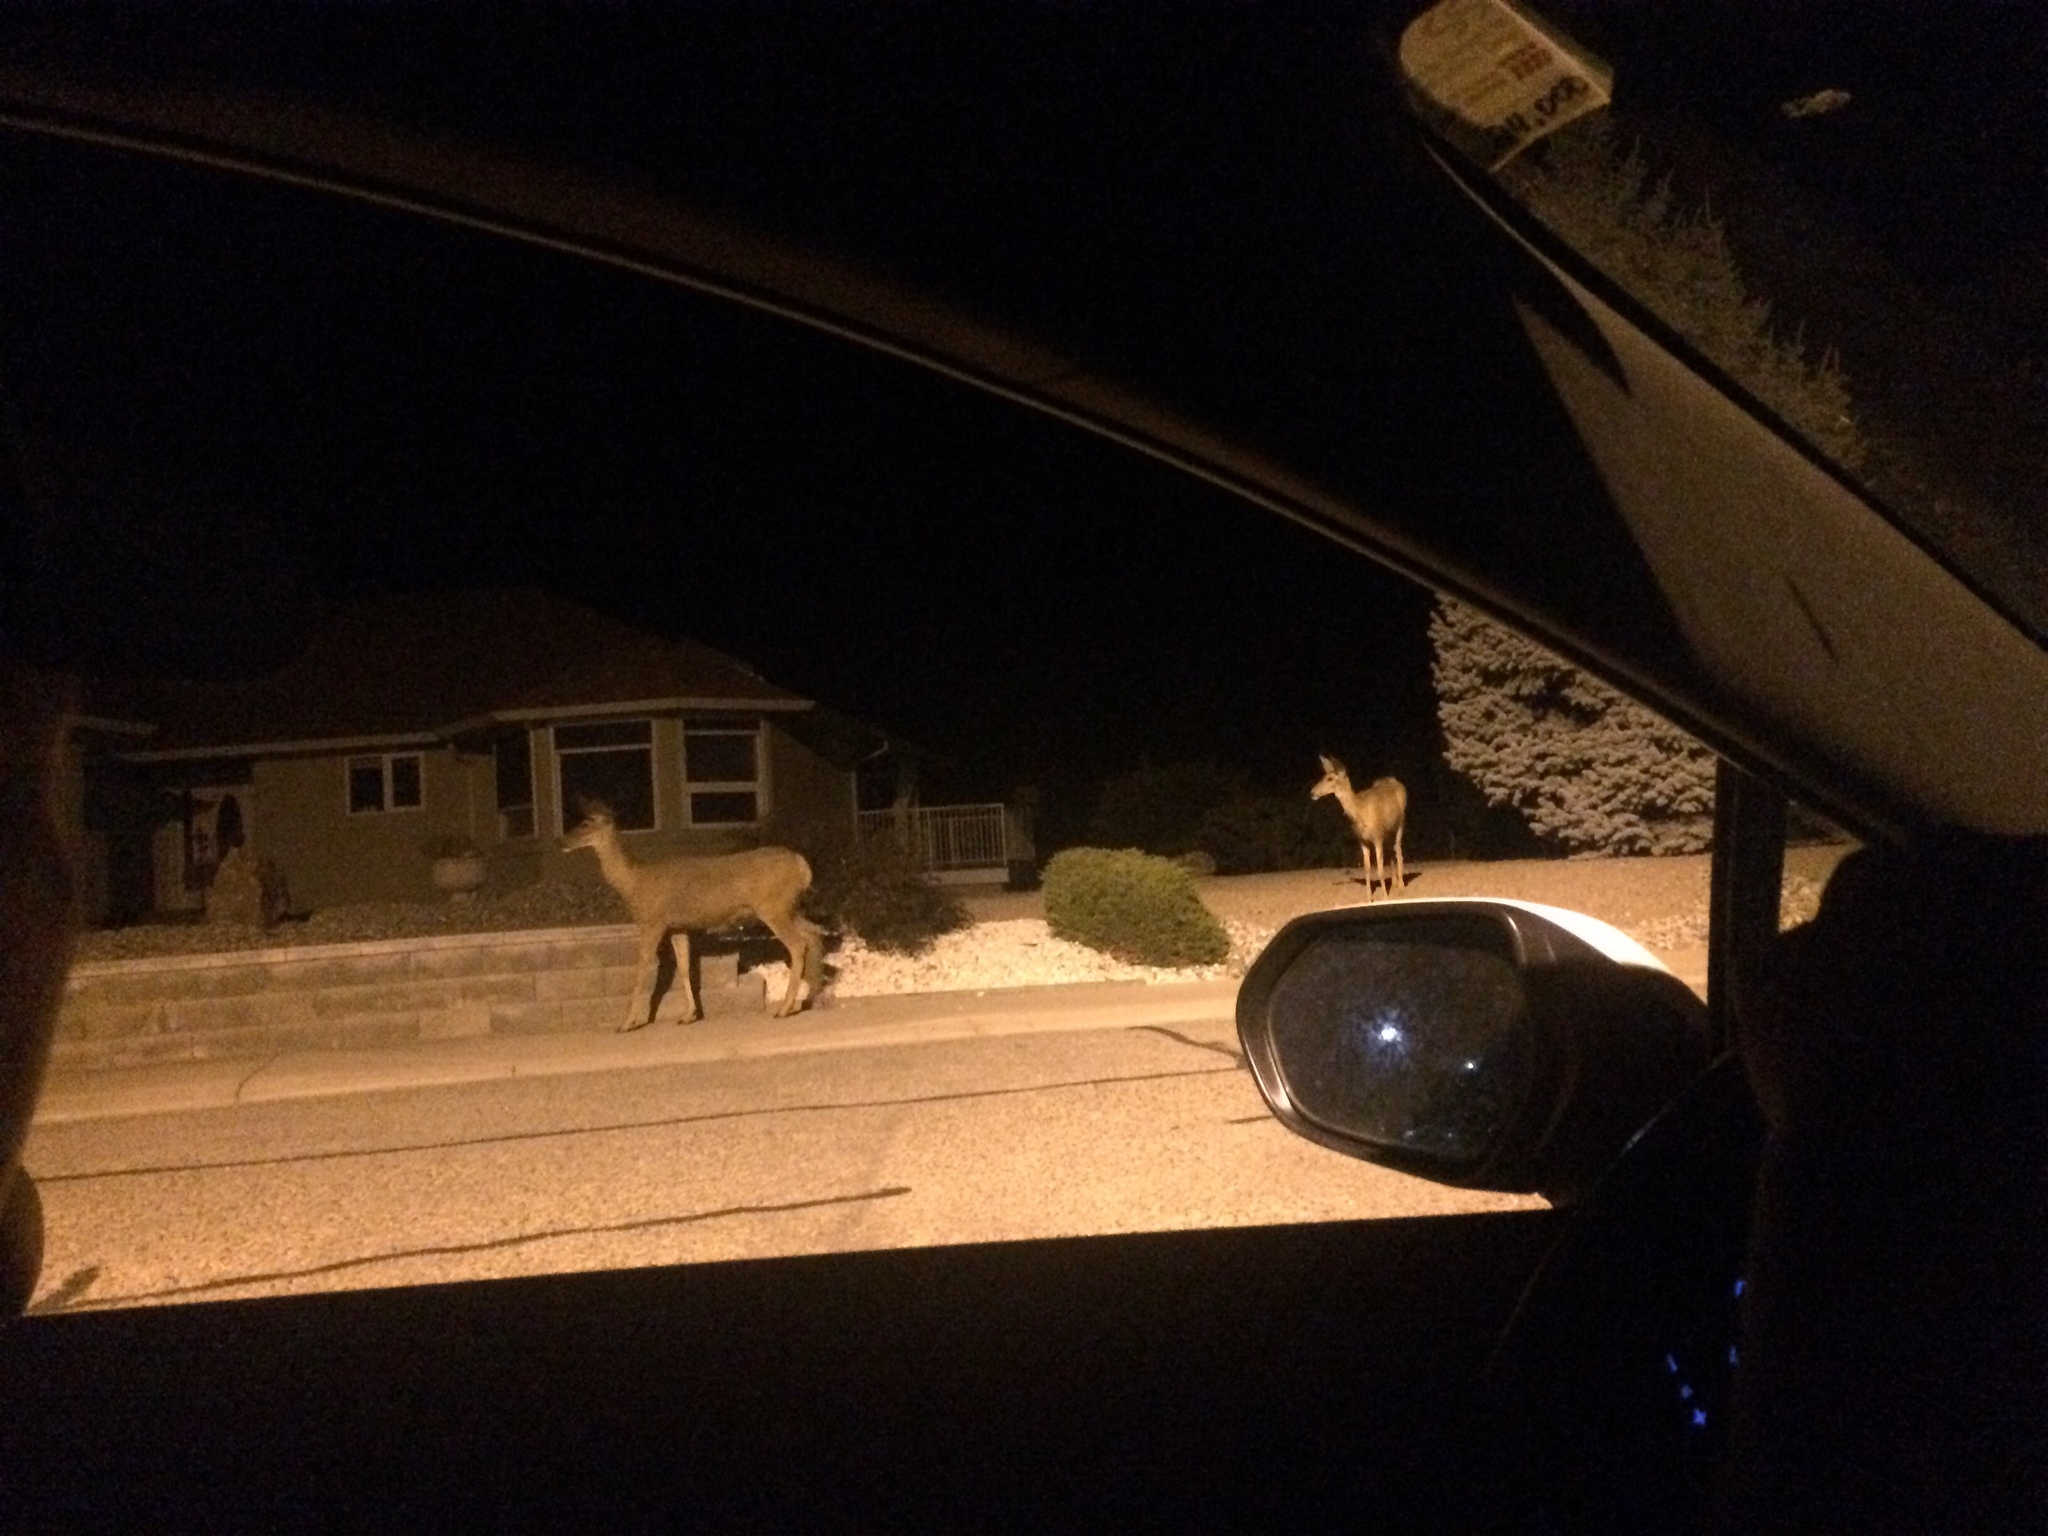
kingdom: Animalia
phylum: Chordata
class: Mammalia
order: Artiodactyla
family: Cervidae
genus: Odocoileus
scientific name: Odocoileus hemionus
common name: Mule deer
